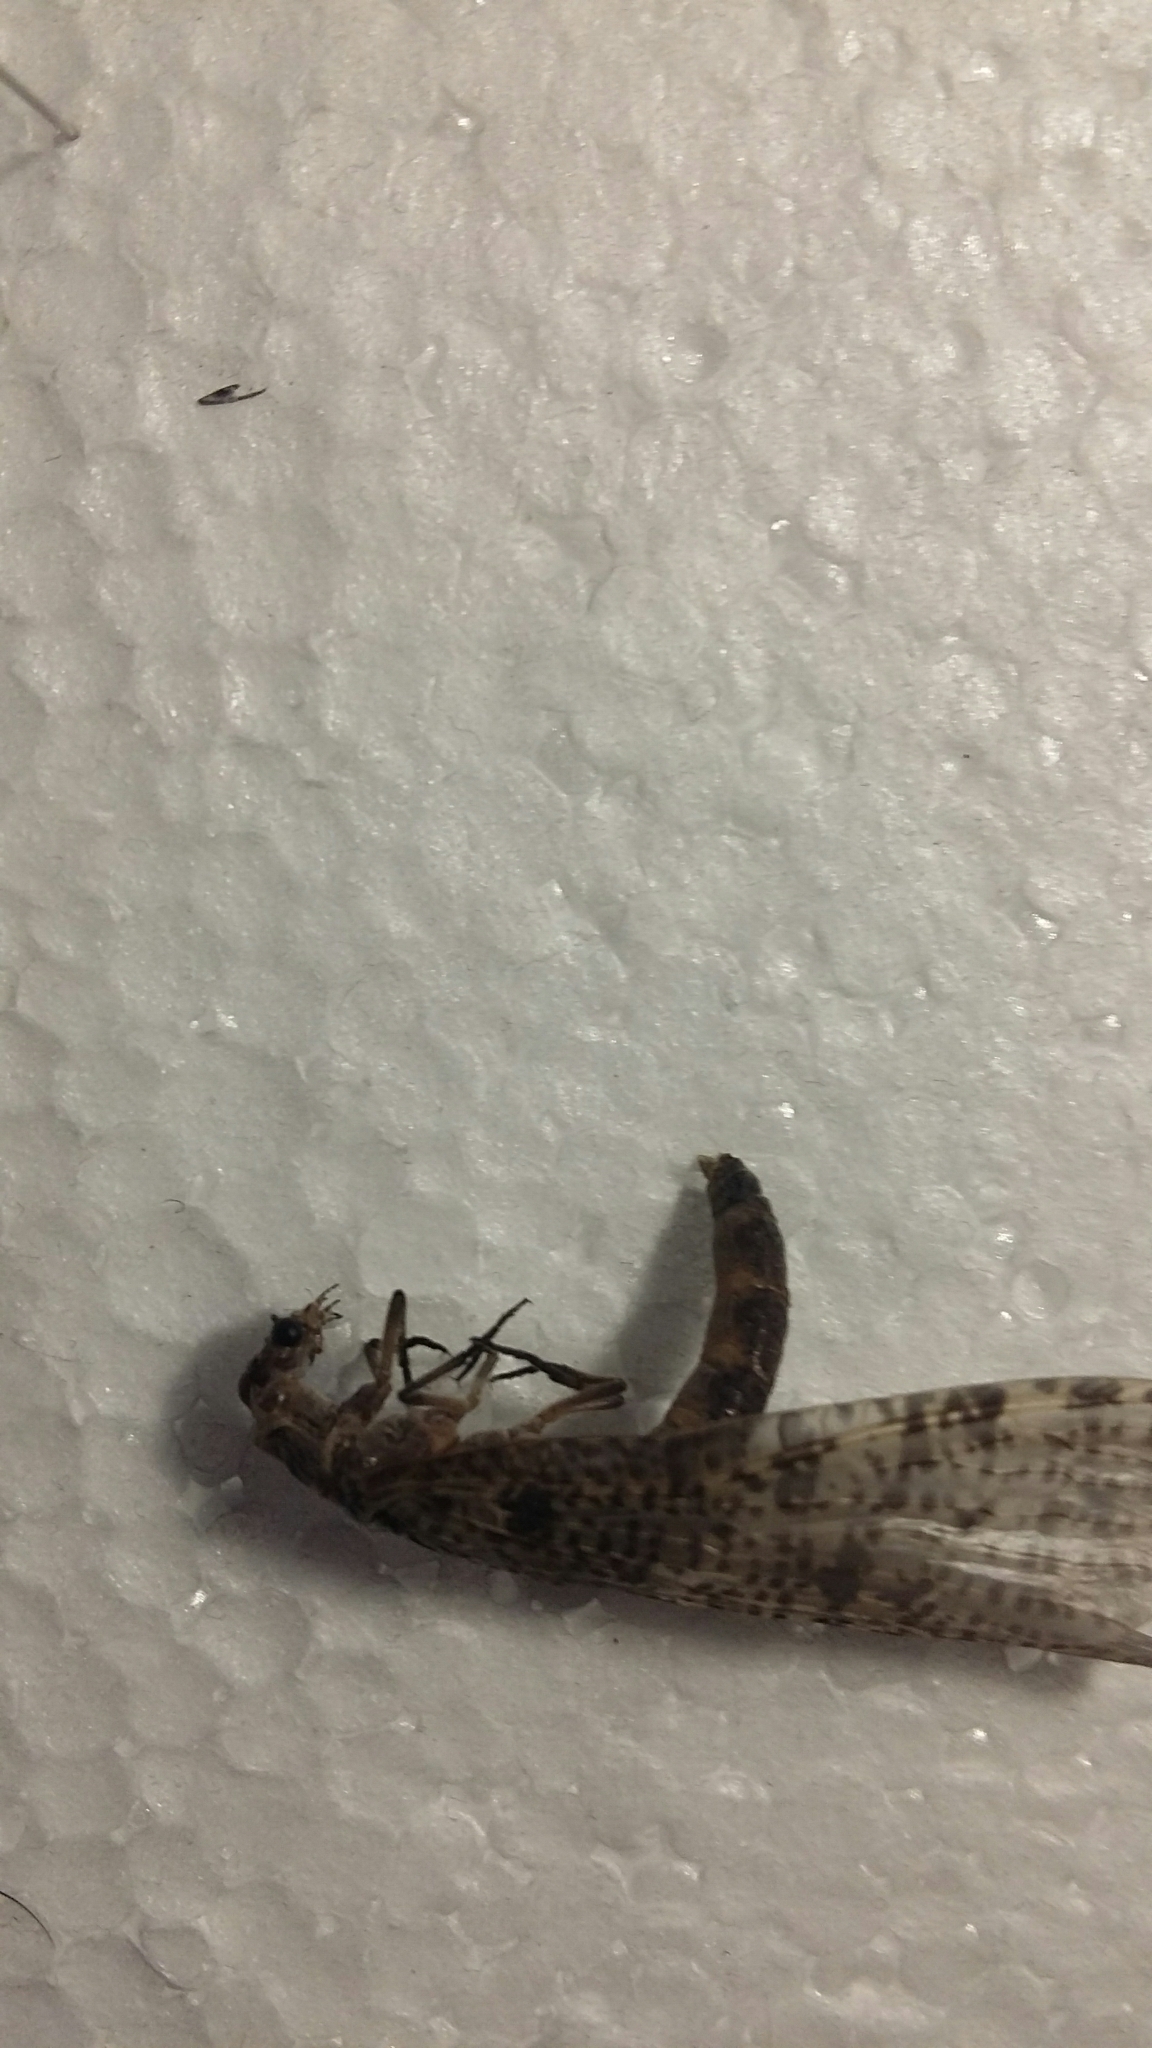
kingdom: Animalia
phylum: Arthropoda
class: Insecta
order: Megaloptera
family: Corydalidae
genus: Archichauliodes
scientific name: Archichauliodes diversus
